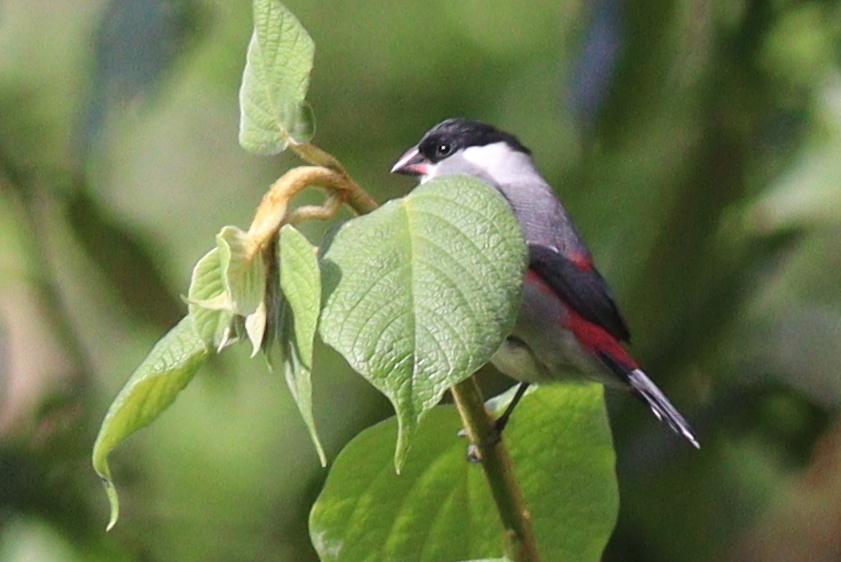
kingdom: Animalia
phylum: Chordata
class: Aves
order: Passeriformes
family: Estrildidae
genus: Estrilda
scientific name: Estrilda nonnula
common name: Black-crowned waxbill
